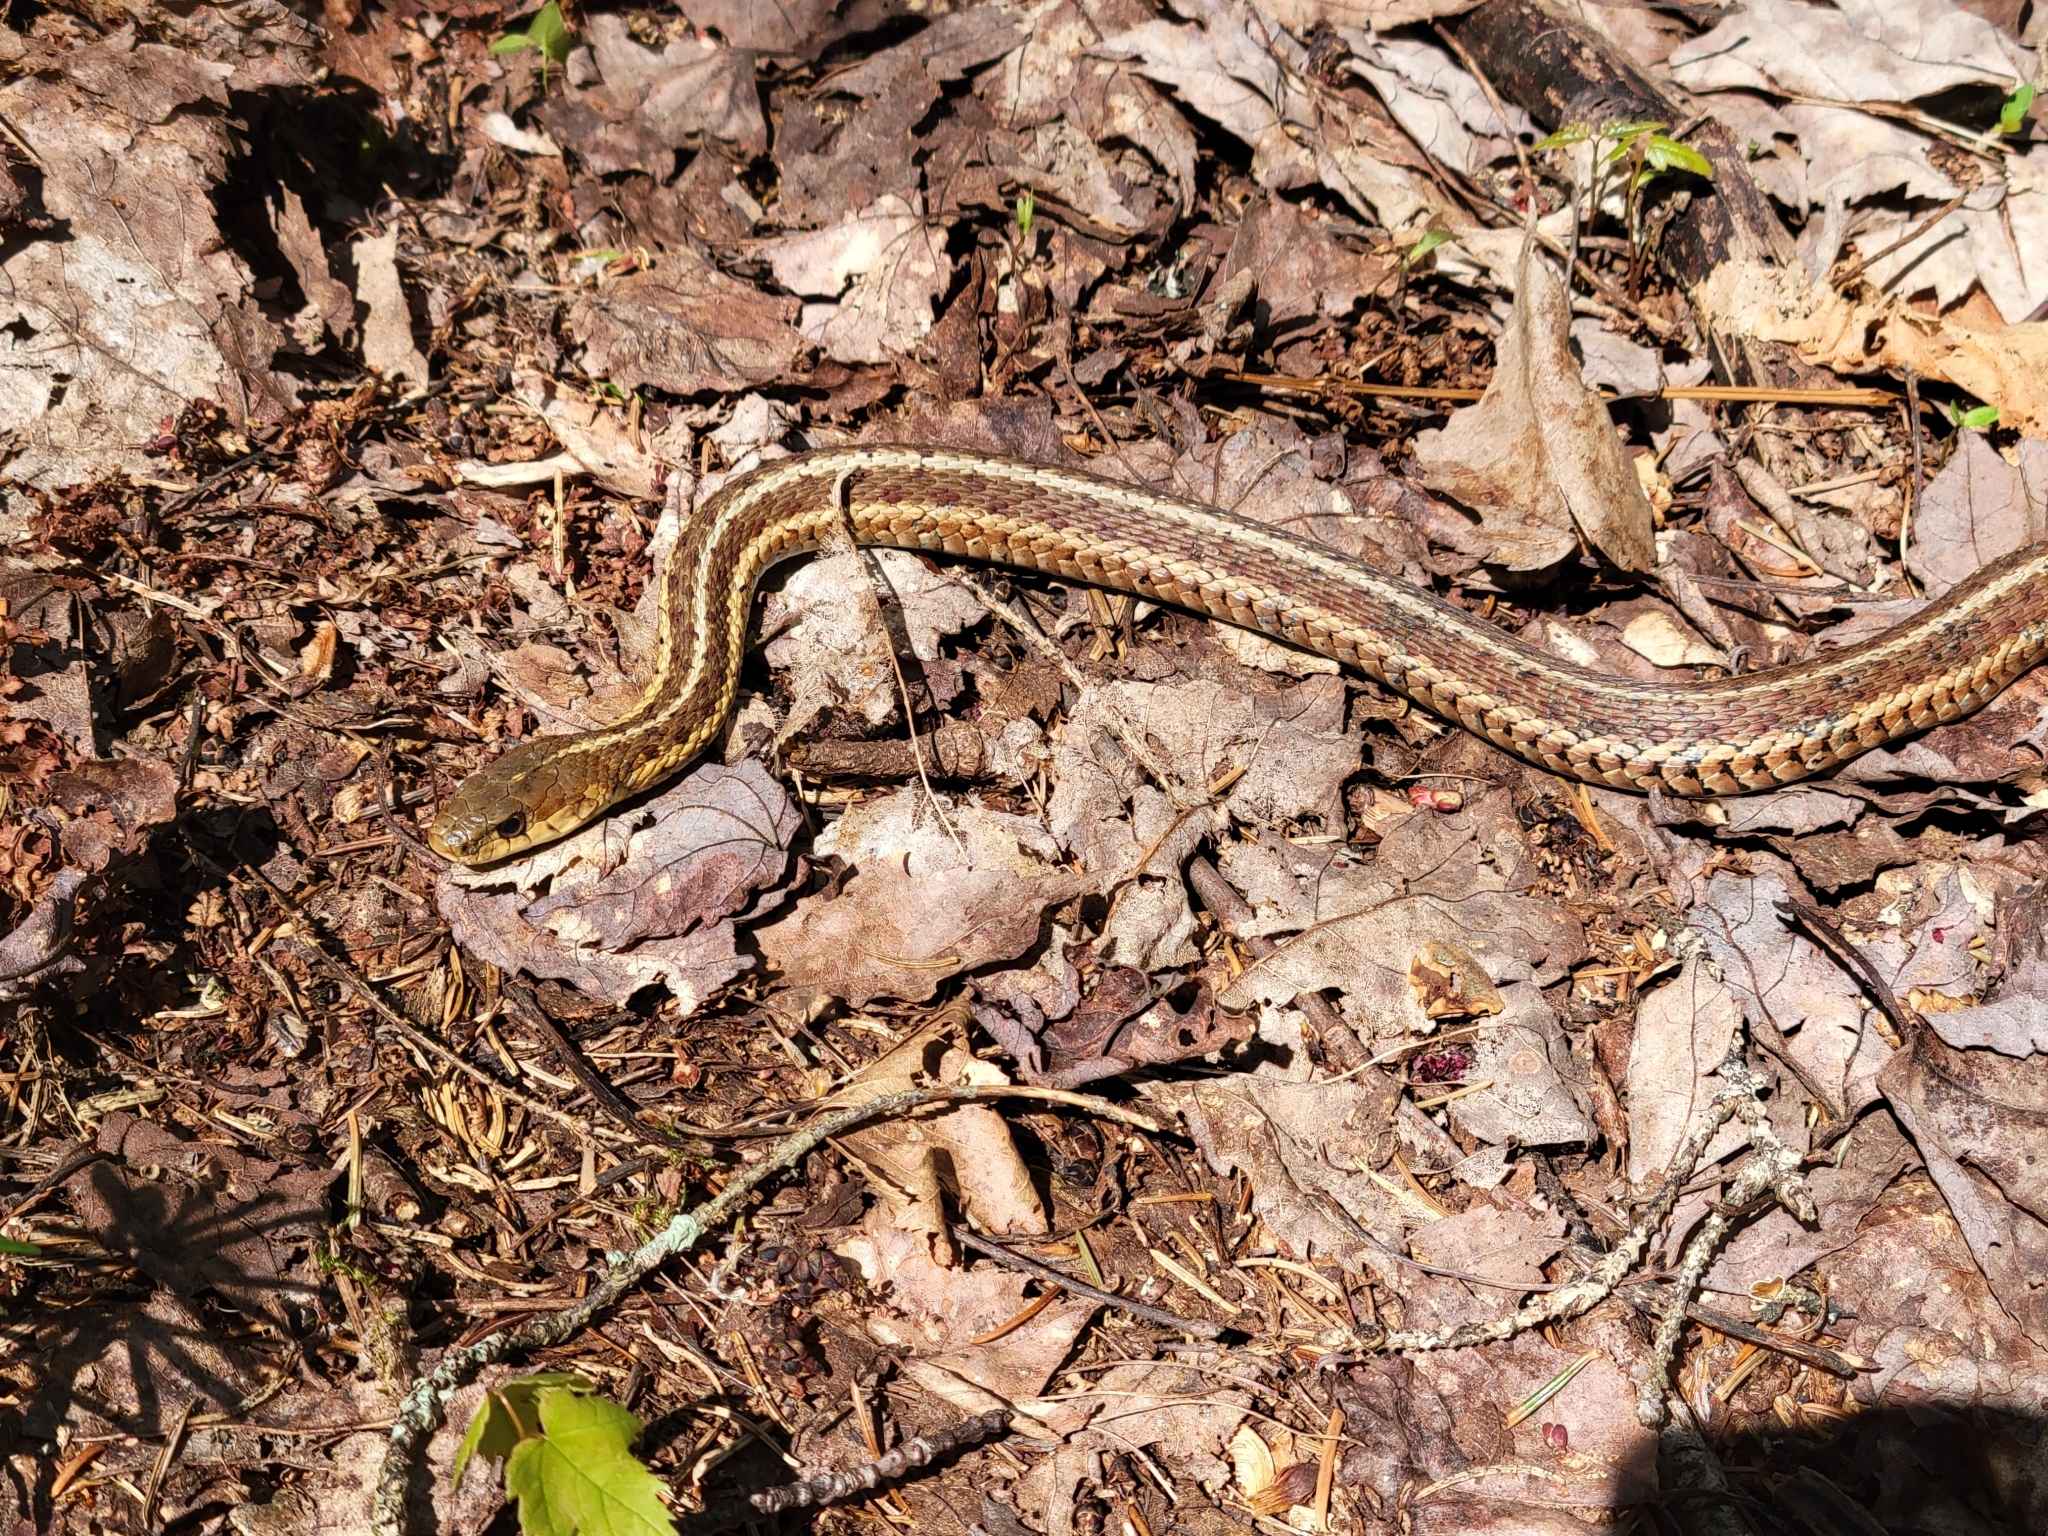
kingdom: Animalia
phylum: Chordata
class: Squamata
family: Colubridae
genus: Thamnophis
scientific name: Thamnophis sirtalis
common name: Common garter snake
